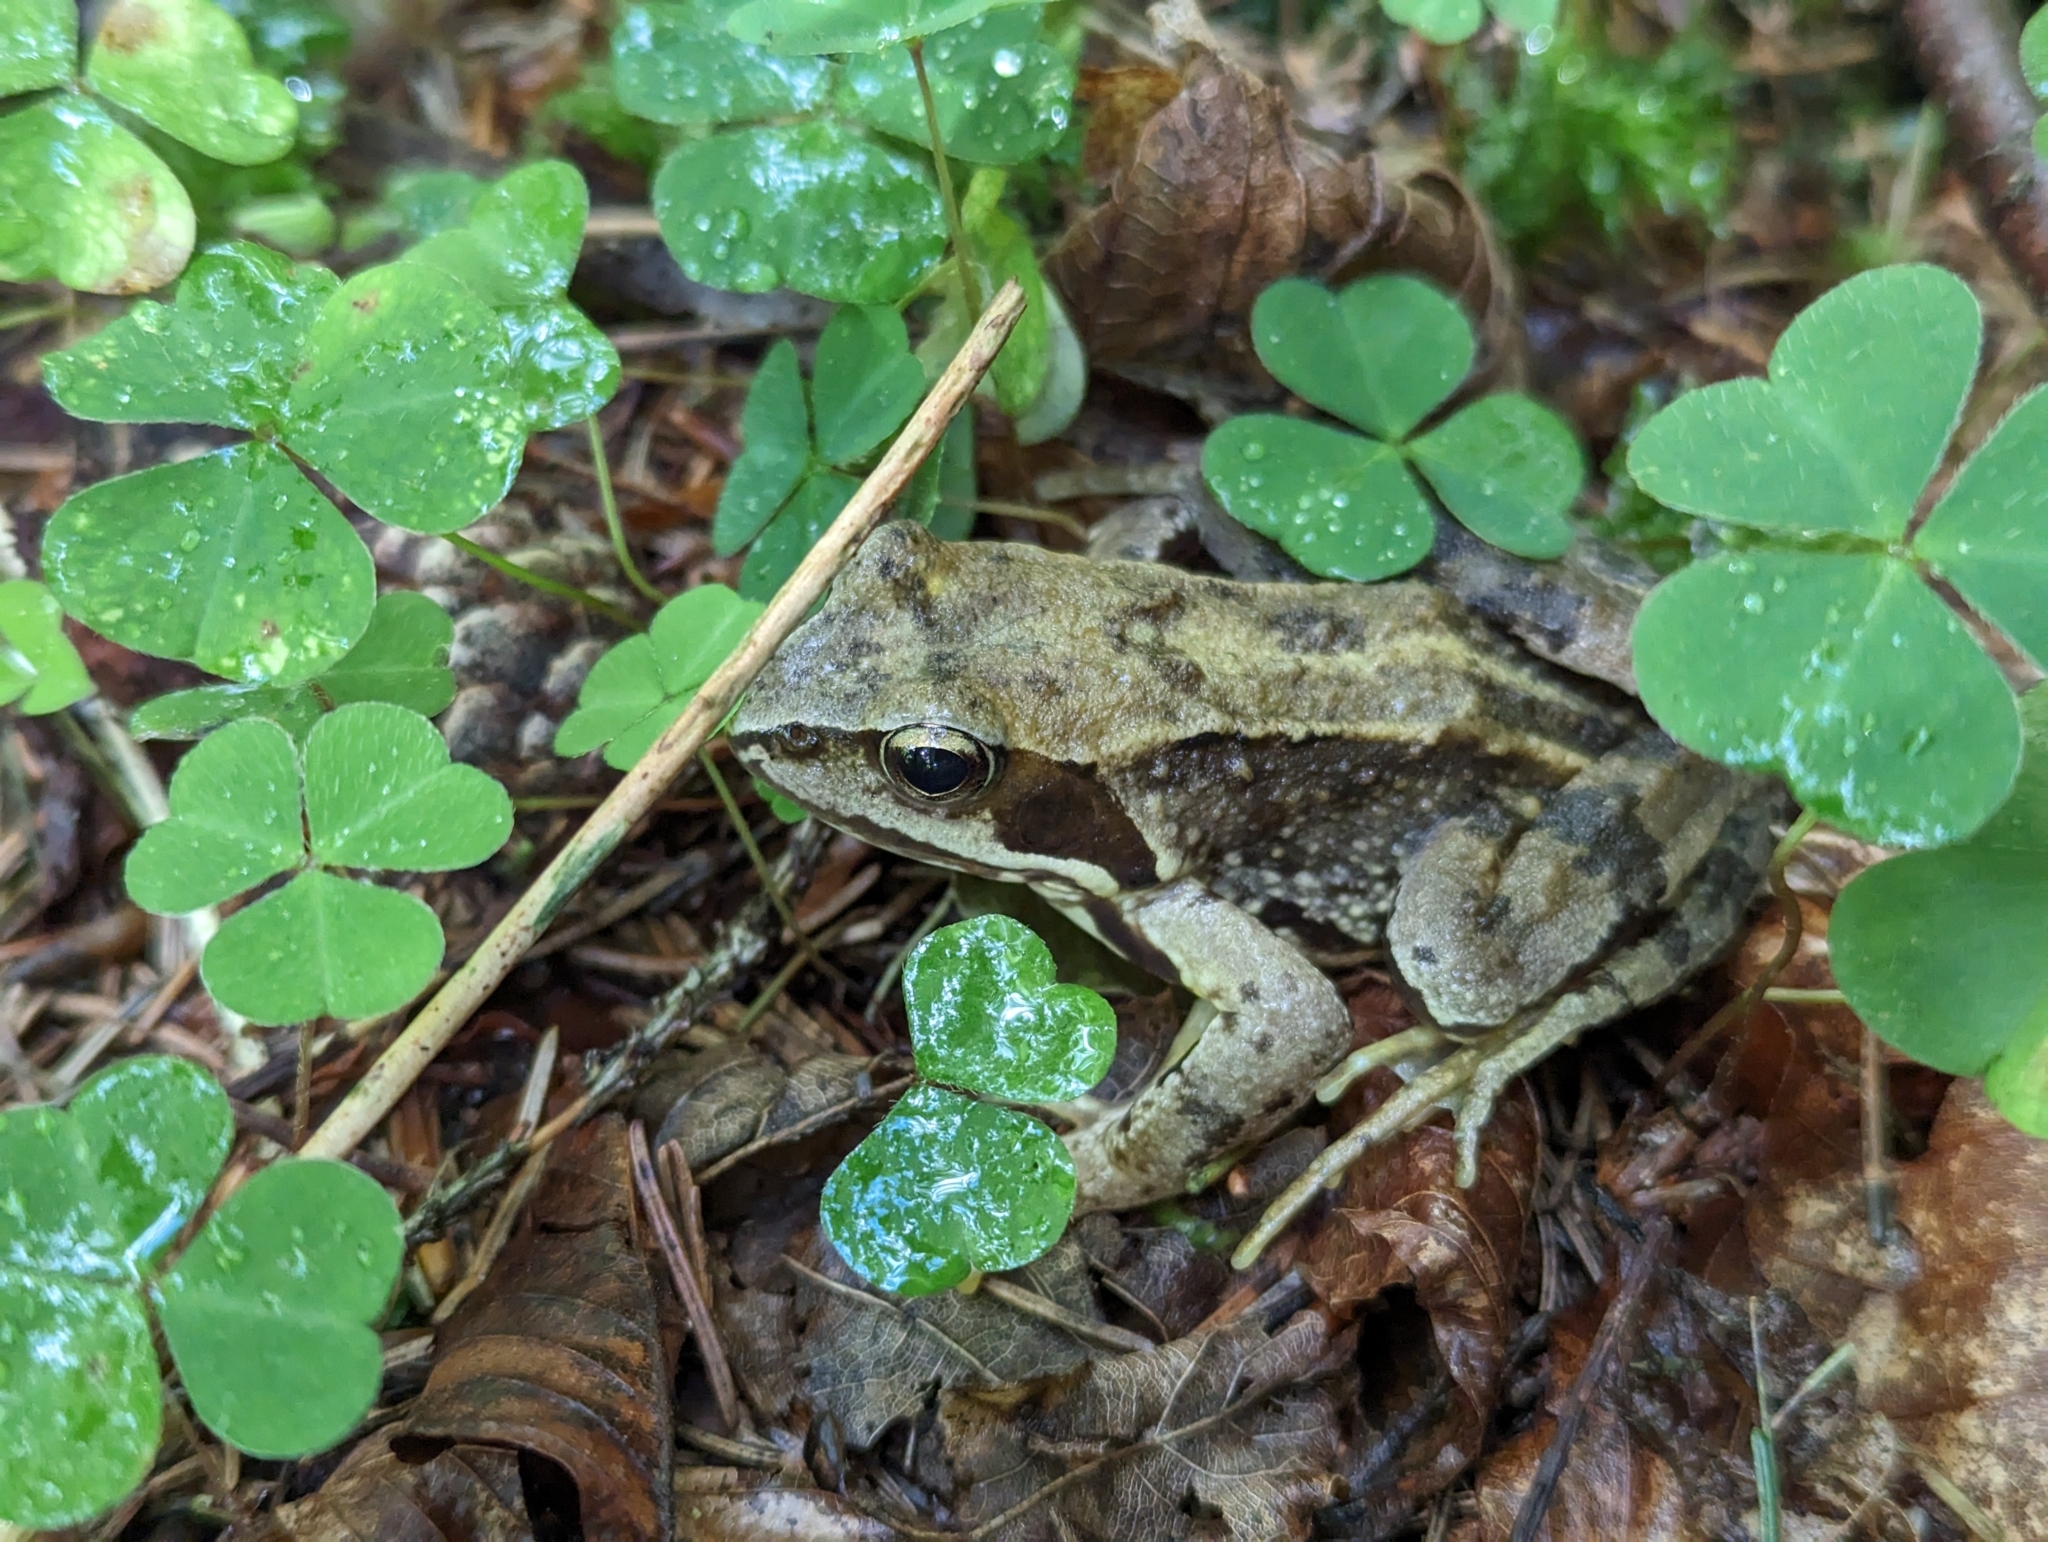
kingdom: Animalia
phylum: Chordata
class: Amphibia
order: Anura
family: Ranidae
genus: Rana
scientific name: Rana temporaria
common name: Common frog
